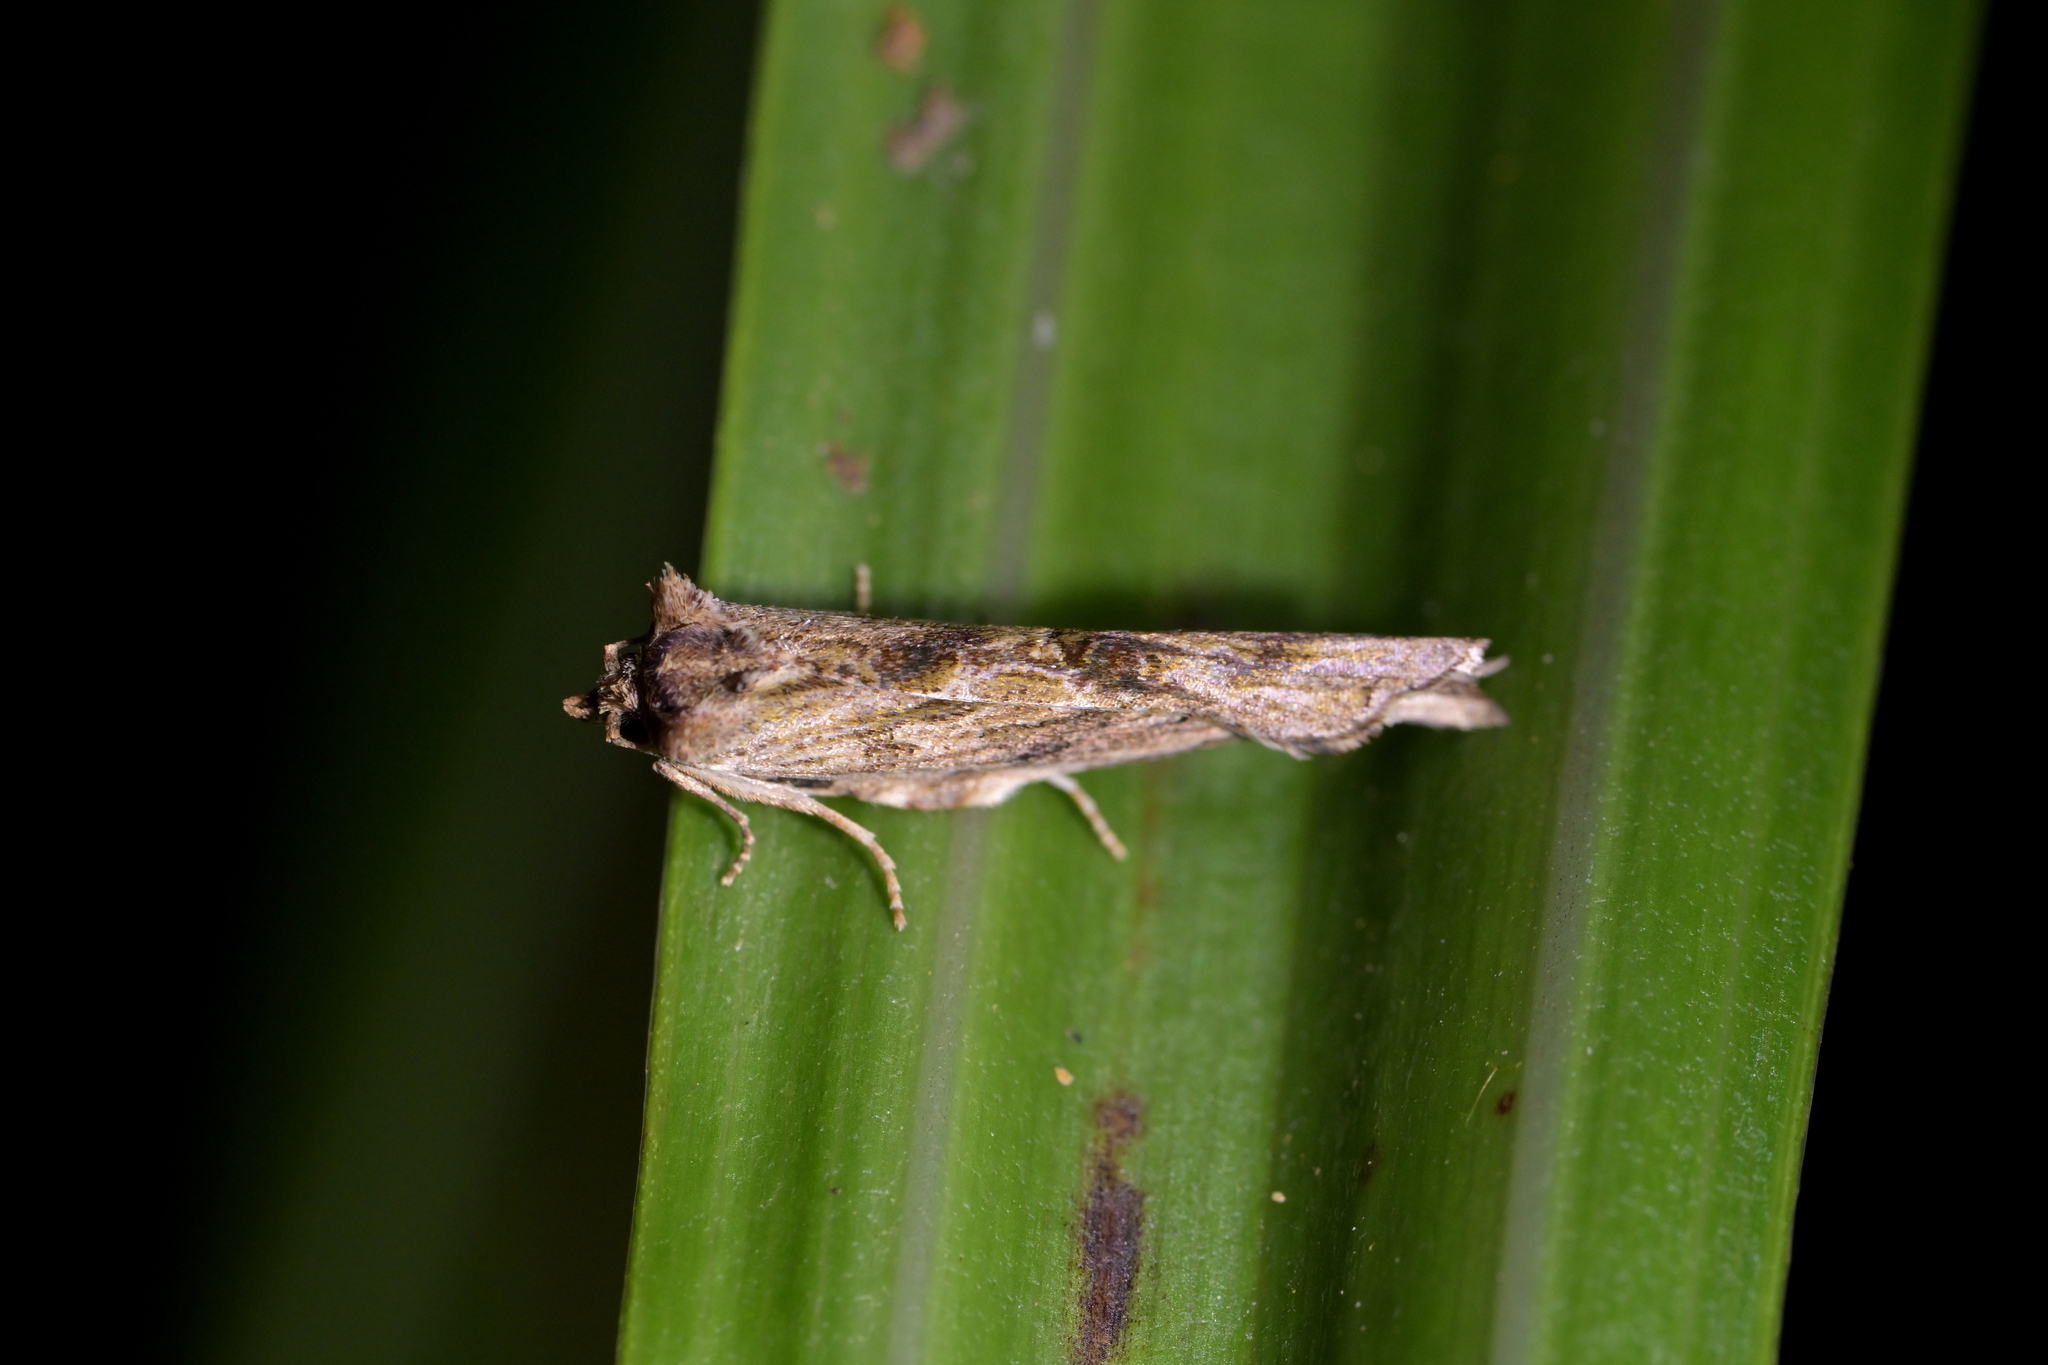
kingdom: Animalia
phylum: Arthropoda
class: Insecta
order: Lepidoptera
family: Tortricidae
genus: Epalxiphora
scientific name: Epalxiphora axenana
